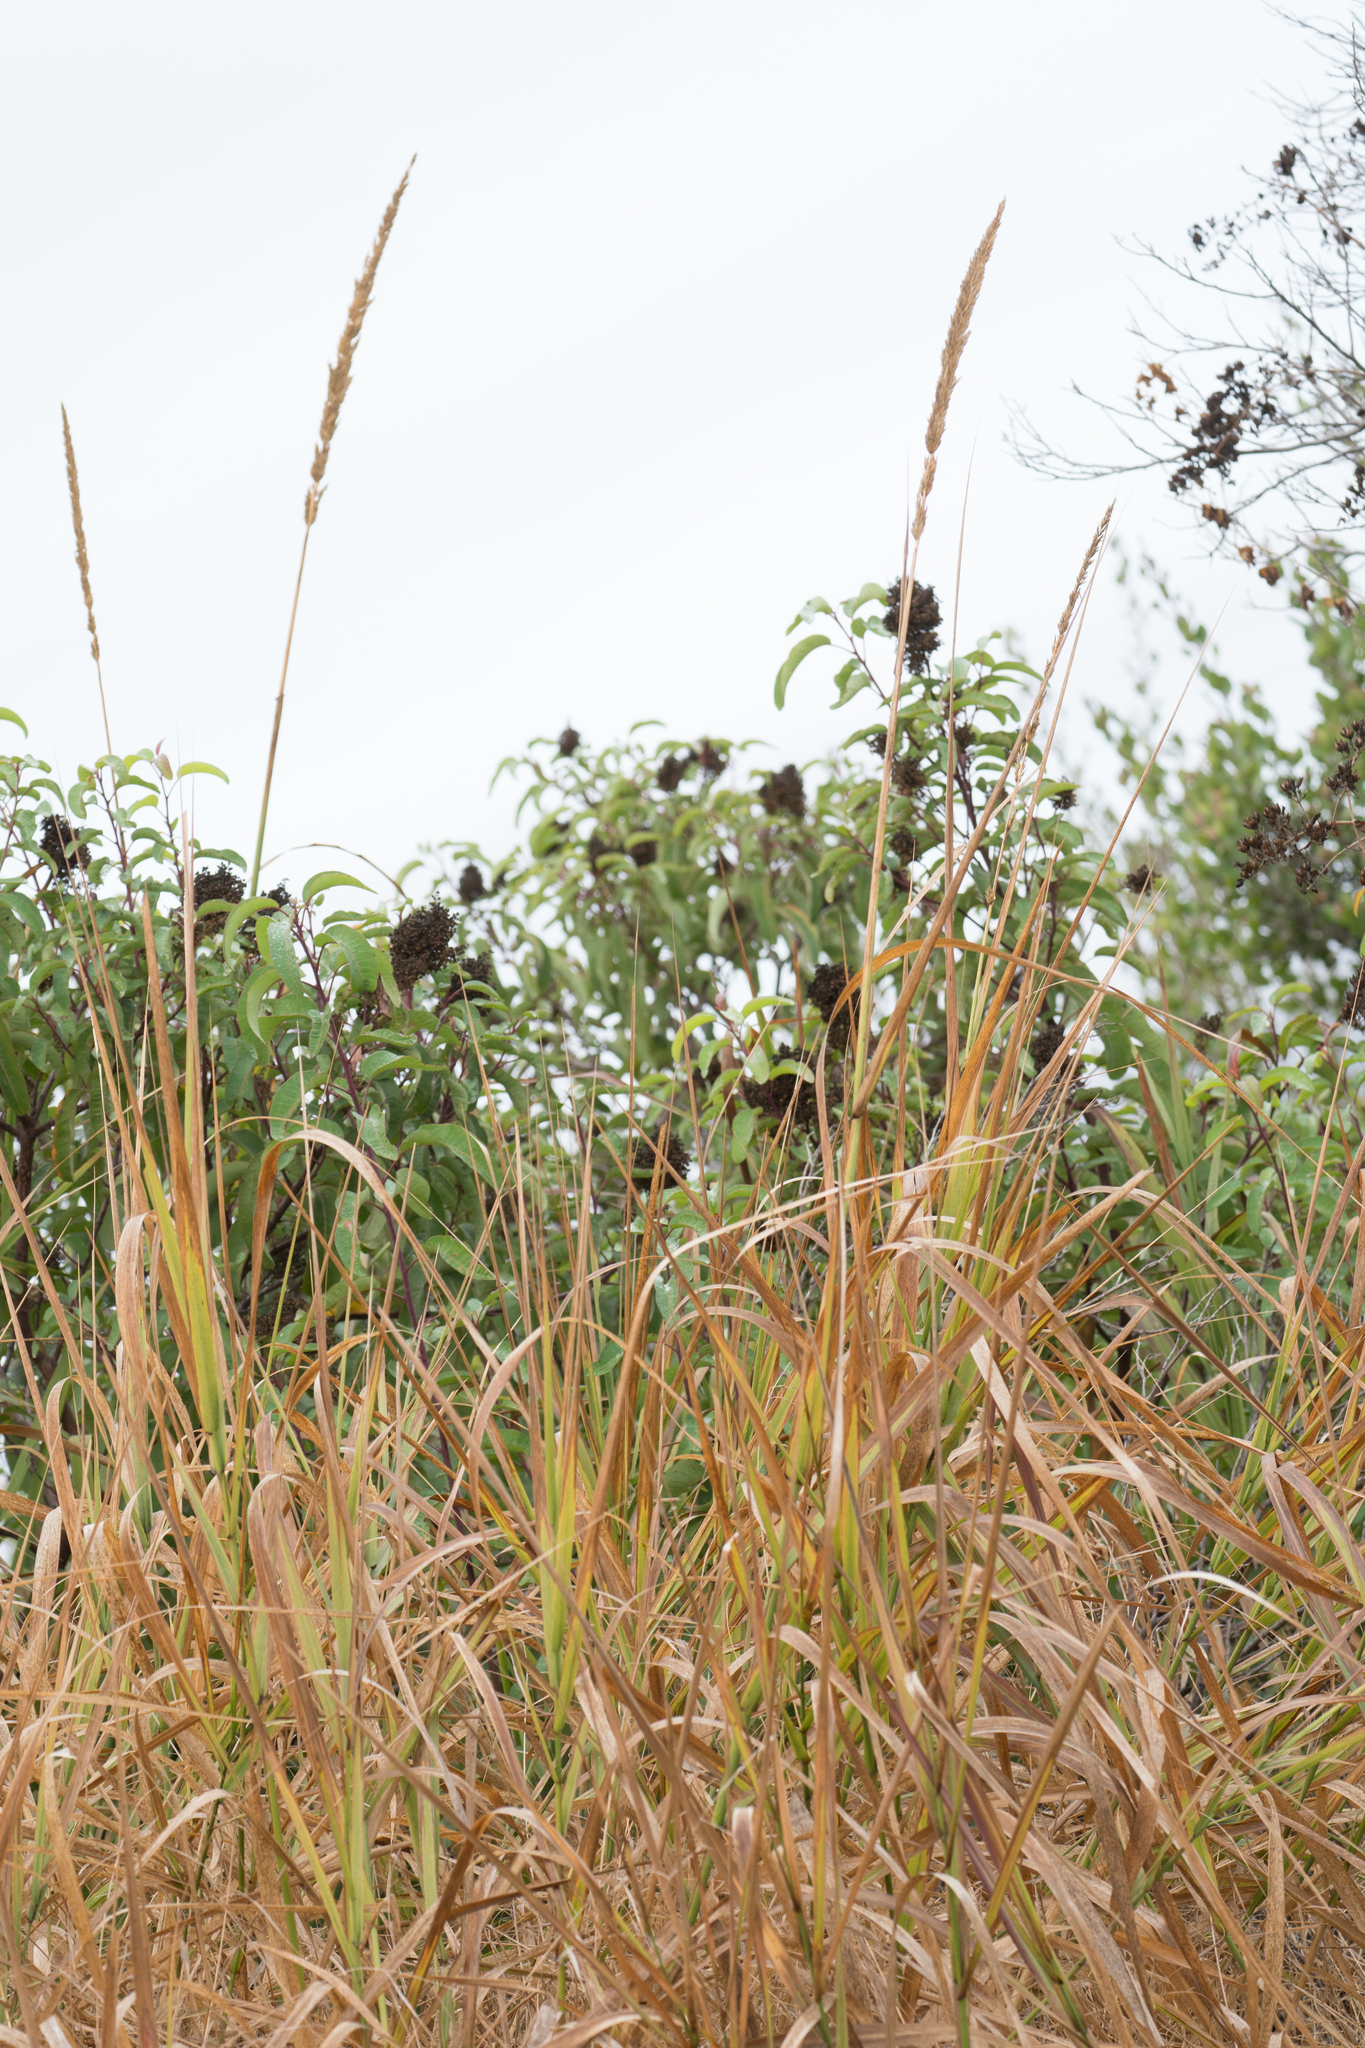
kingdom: Plantae
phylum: Tracheophyta
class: Liliopsida
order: Poales
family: Poaceae
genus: Leymus
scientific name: Leymus condensatus
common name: Giant wild rye
